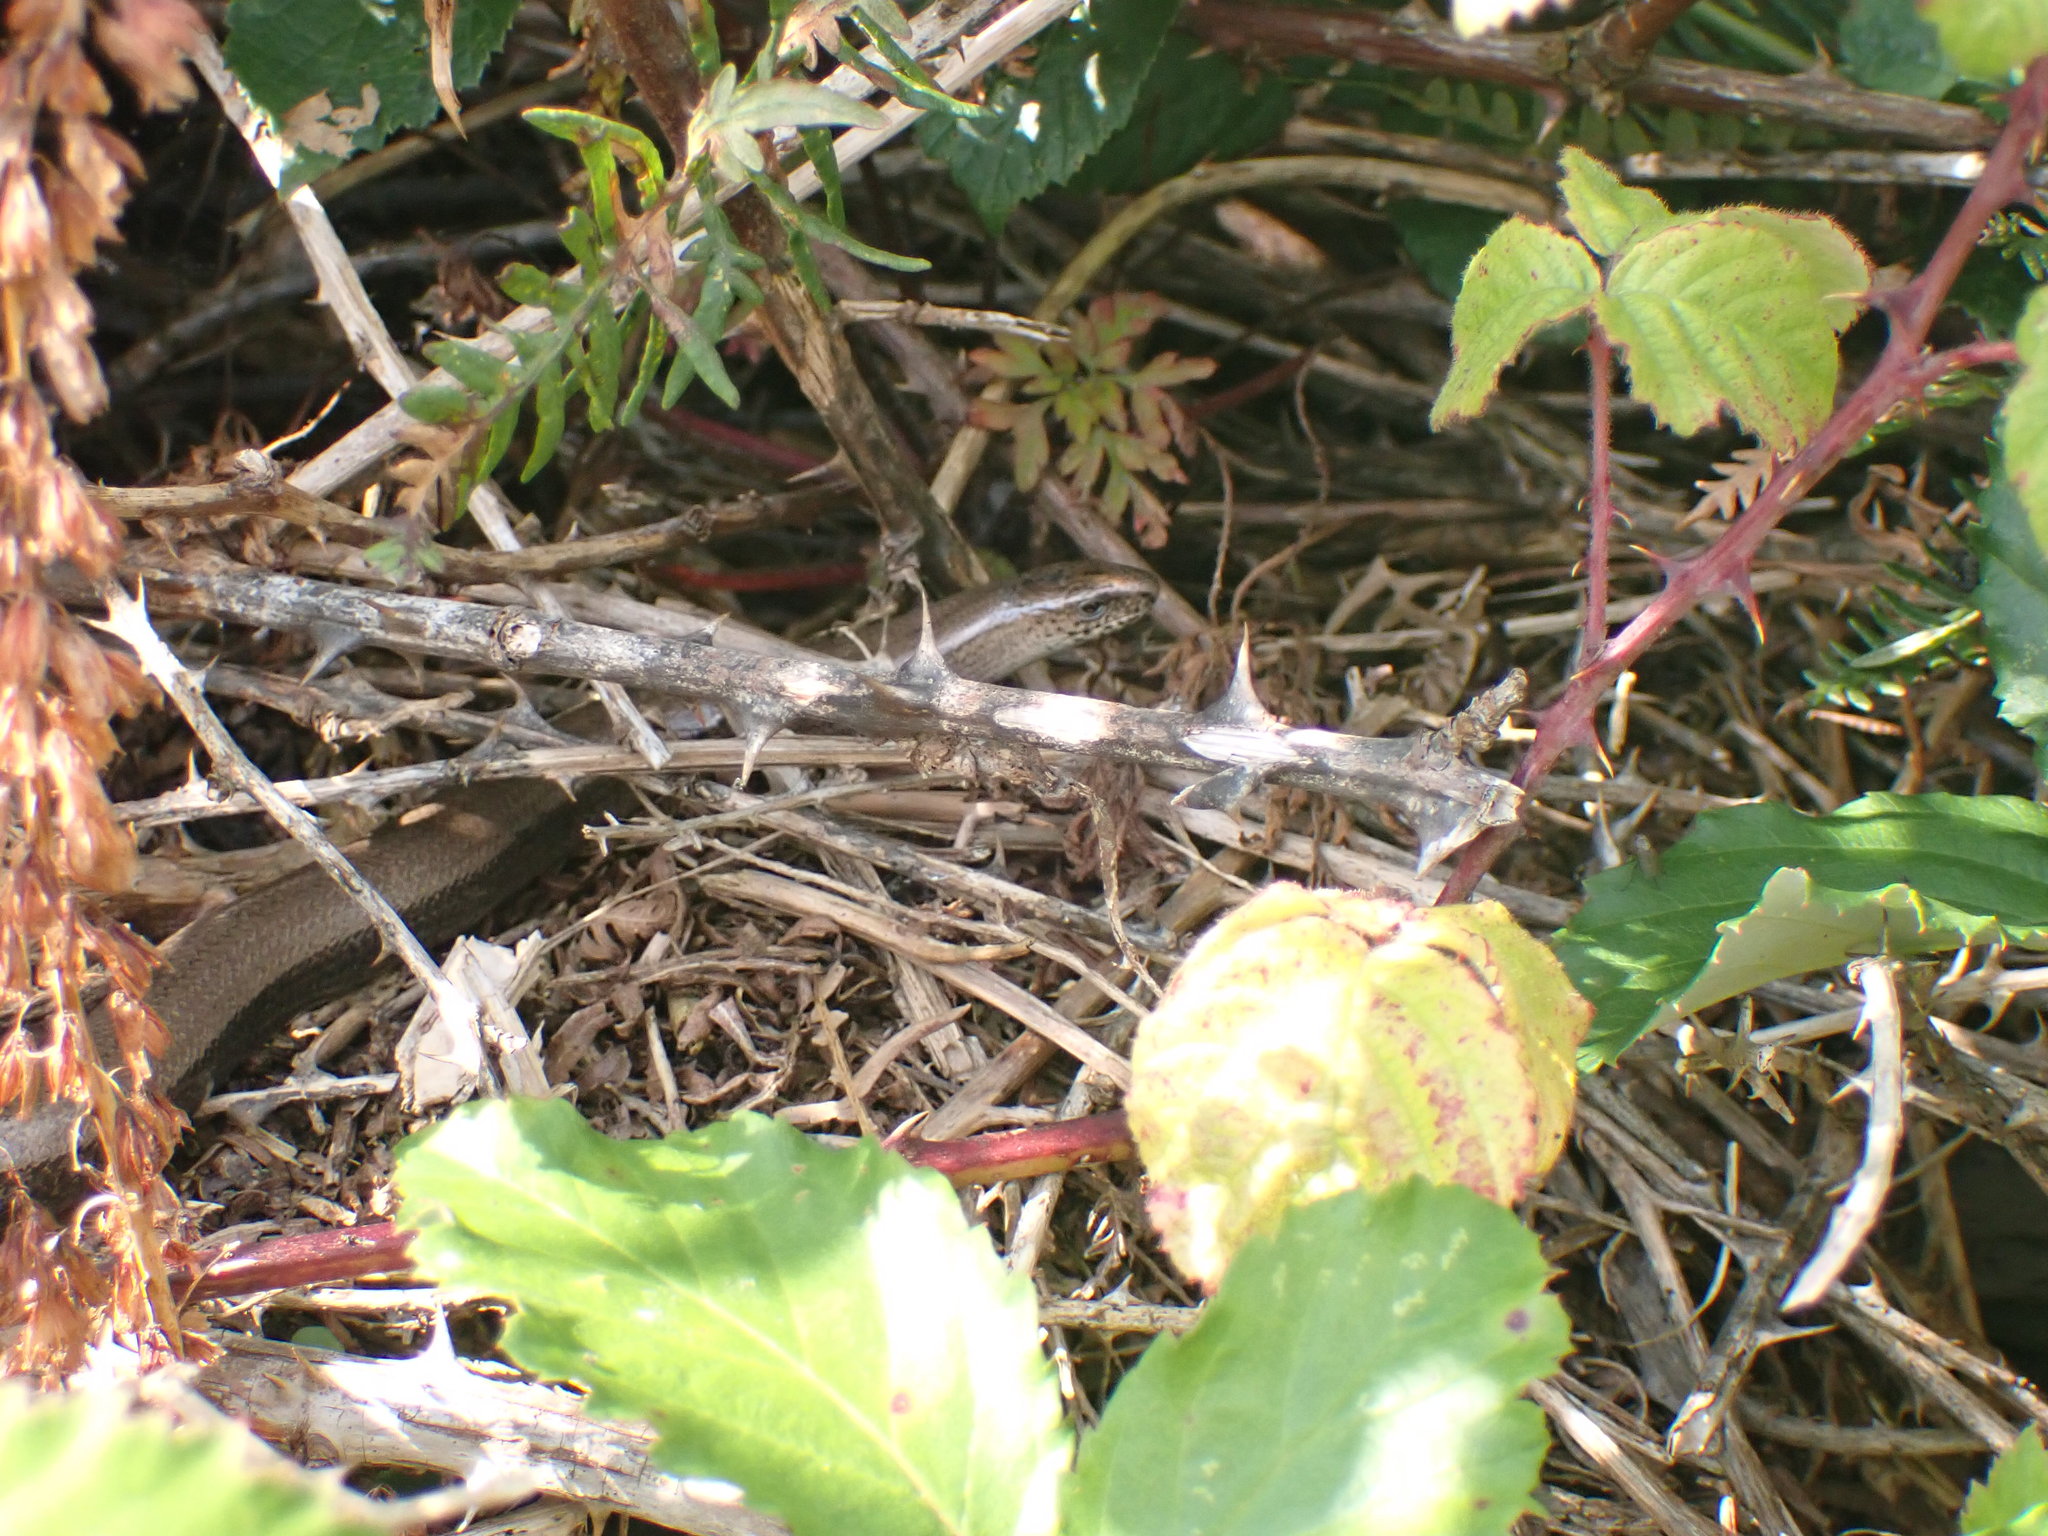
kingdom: Animalia
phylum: Chordata
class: Squamata
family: Anguidae
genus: Anguis
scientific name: Anguis fragilis
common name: Slow worm
